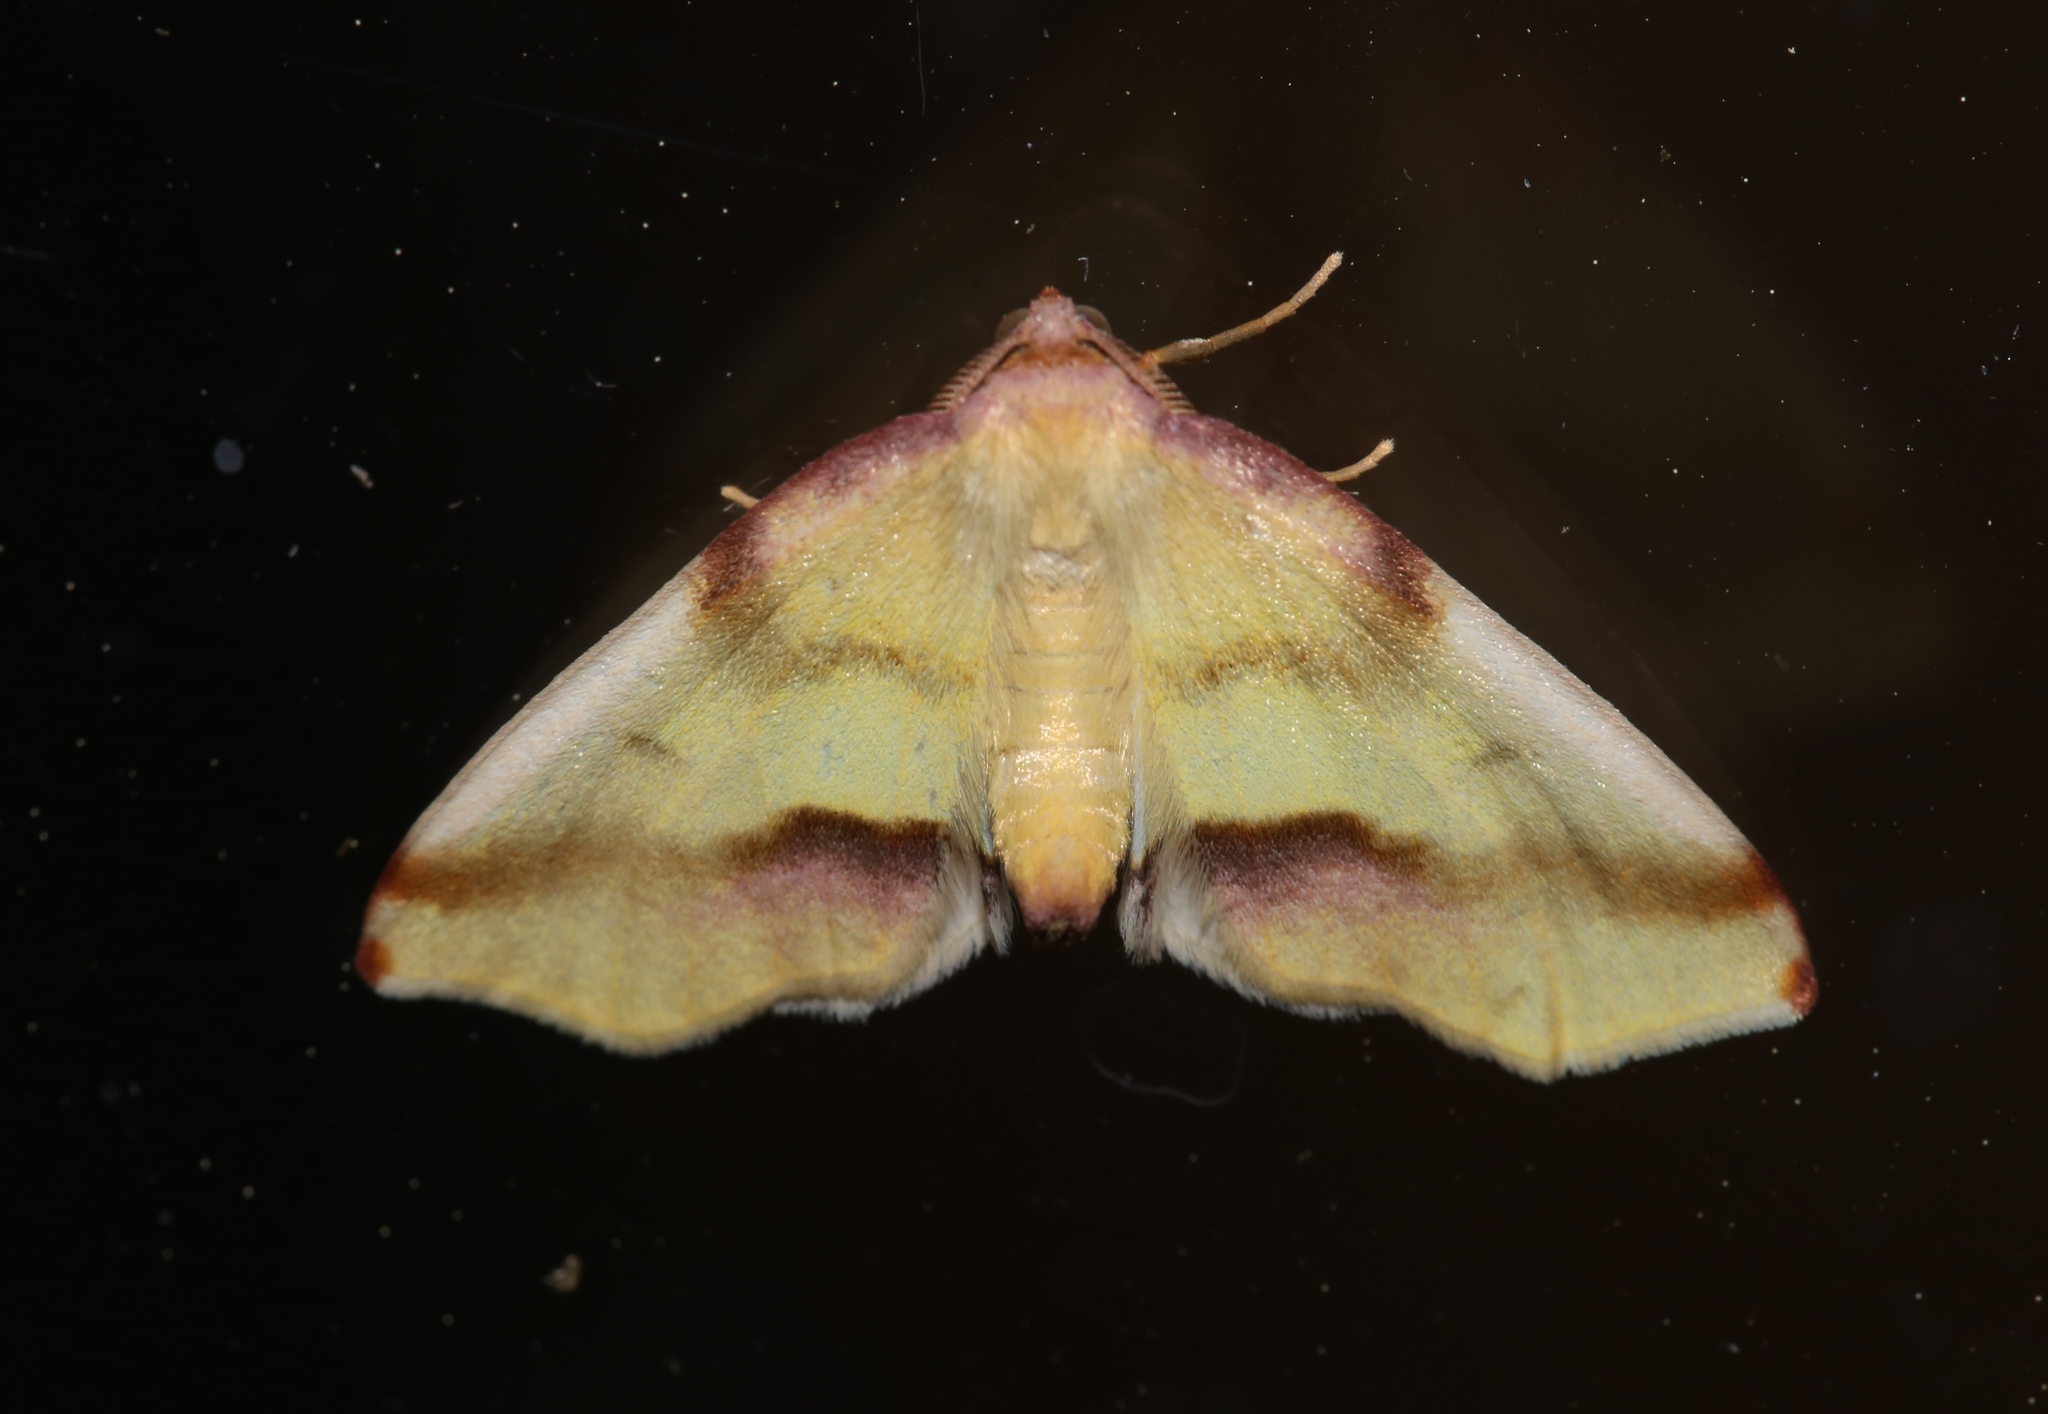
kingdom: Animalia
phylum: Arthropoda
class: Insecta
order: Lepidoptera
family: Geometridae
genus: Plagodis
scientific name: Plagodis serinaria
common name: Lemon plagodis
